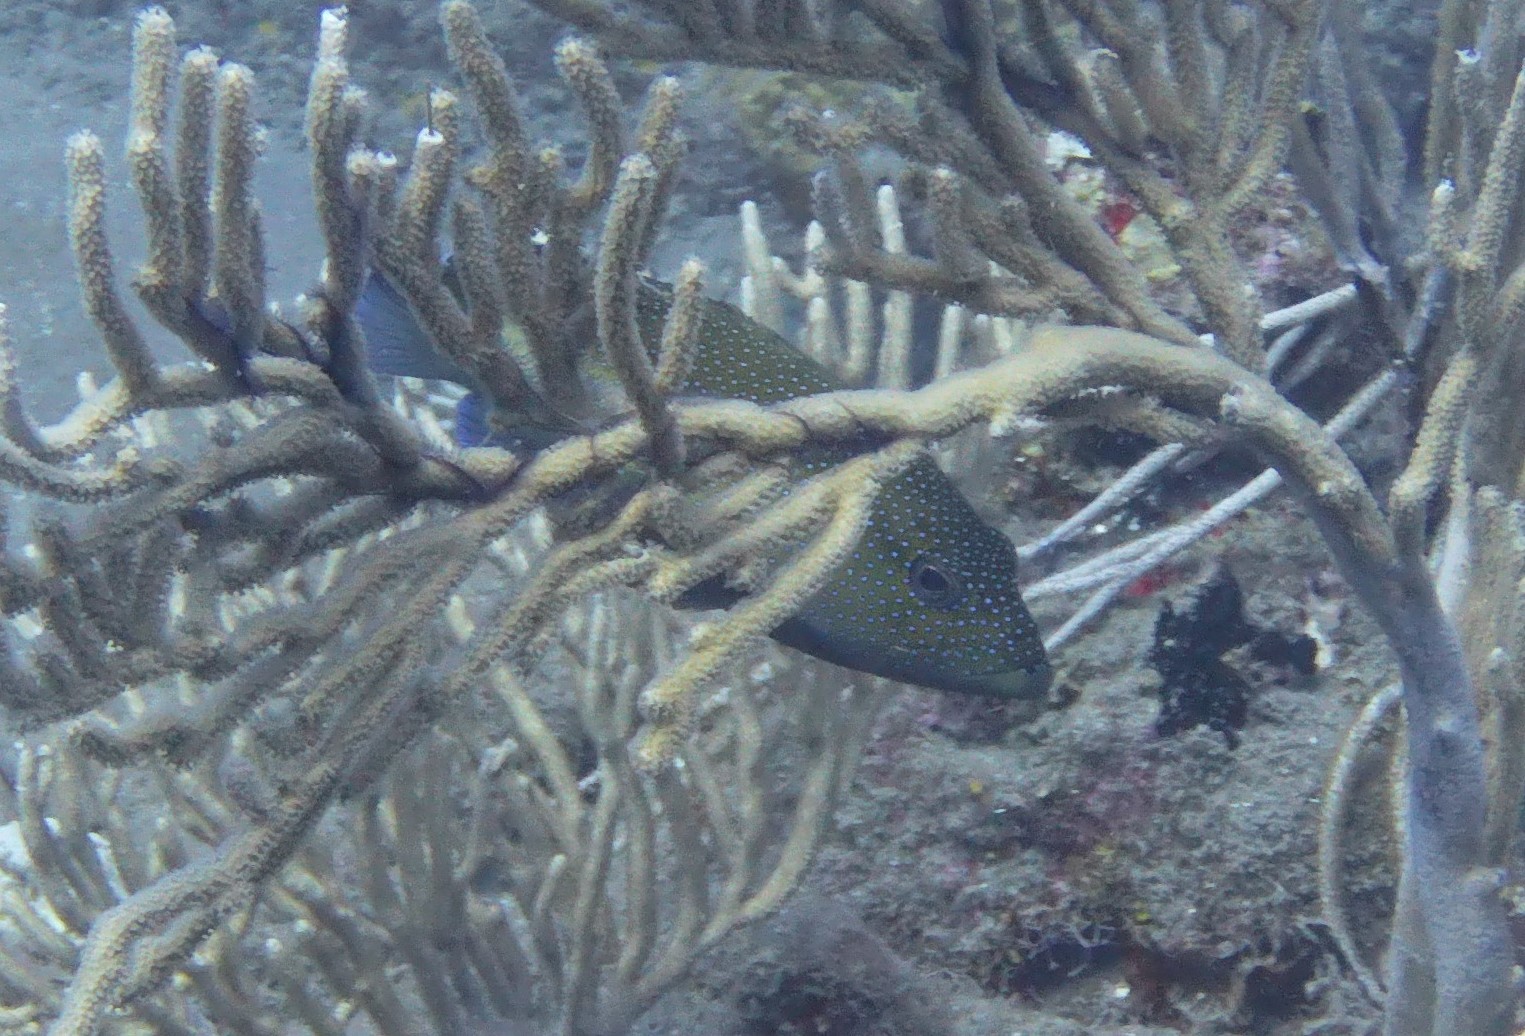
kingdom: Animalia
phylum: Chordata
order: Perciformes
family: Serranidae
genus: Cephalopholis
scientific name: Cephalopholis fulva
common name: Butterfish
